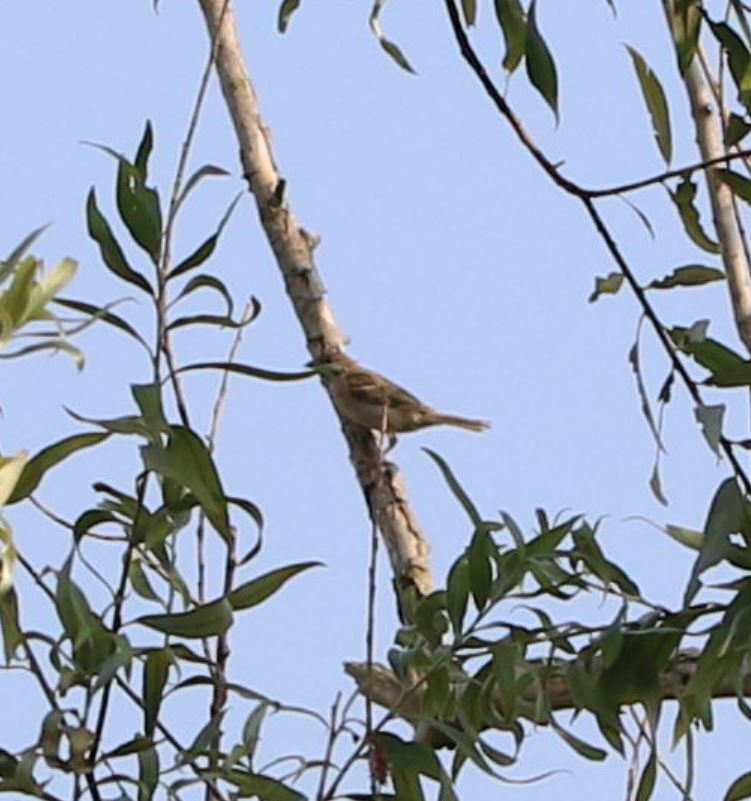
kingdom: Animalia
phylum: Chordata
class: Aves
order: Passeriformes
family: Passeridae
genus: Passer
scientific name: Passer montanus
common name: Eurasian tree sparrow
